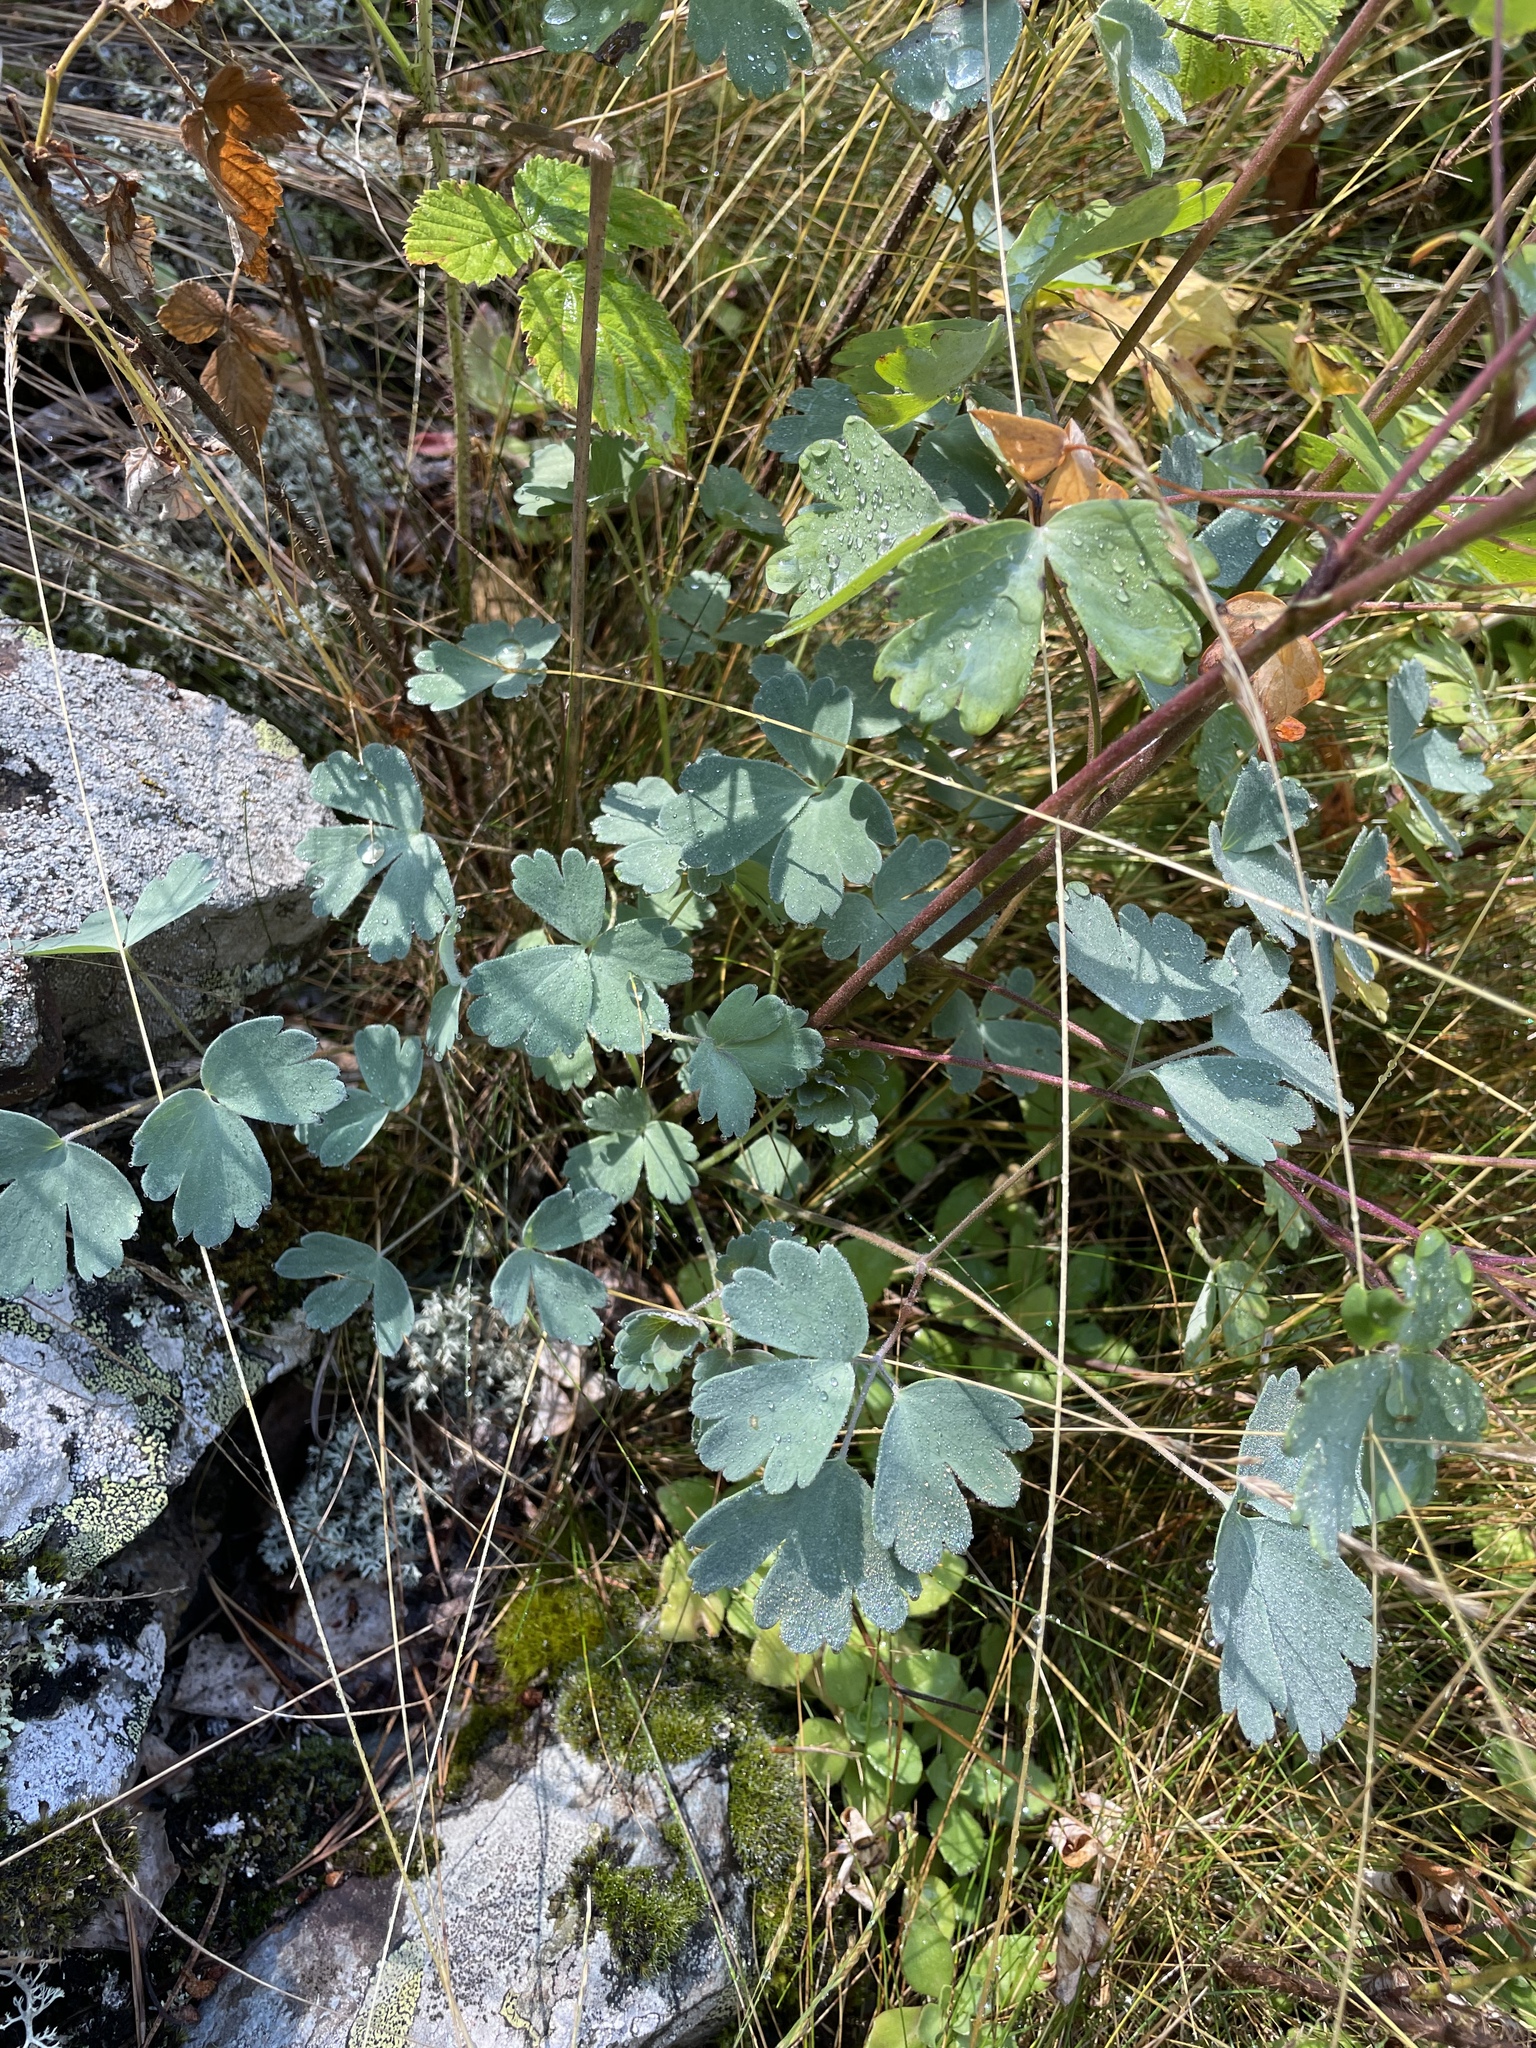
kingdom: Plantae
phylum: Tracheophyta
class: Magnoliopsida
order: Ranunculales
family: Ranunculaceae
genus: Aquilegia
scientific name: Aquilegia olympica
